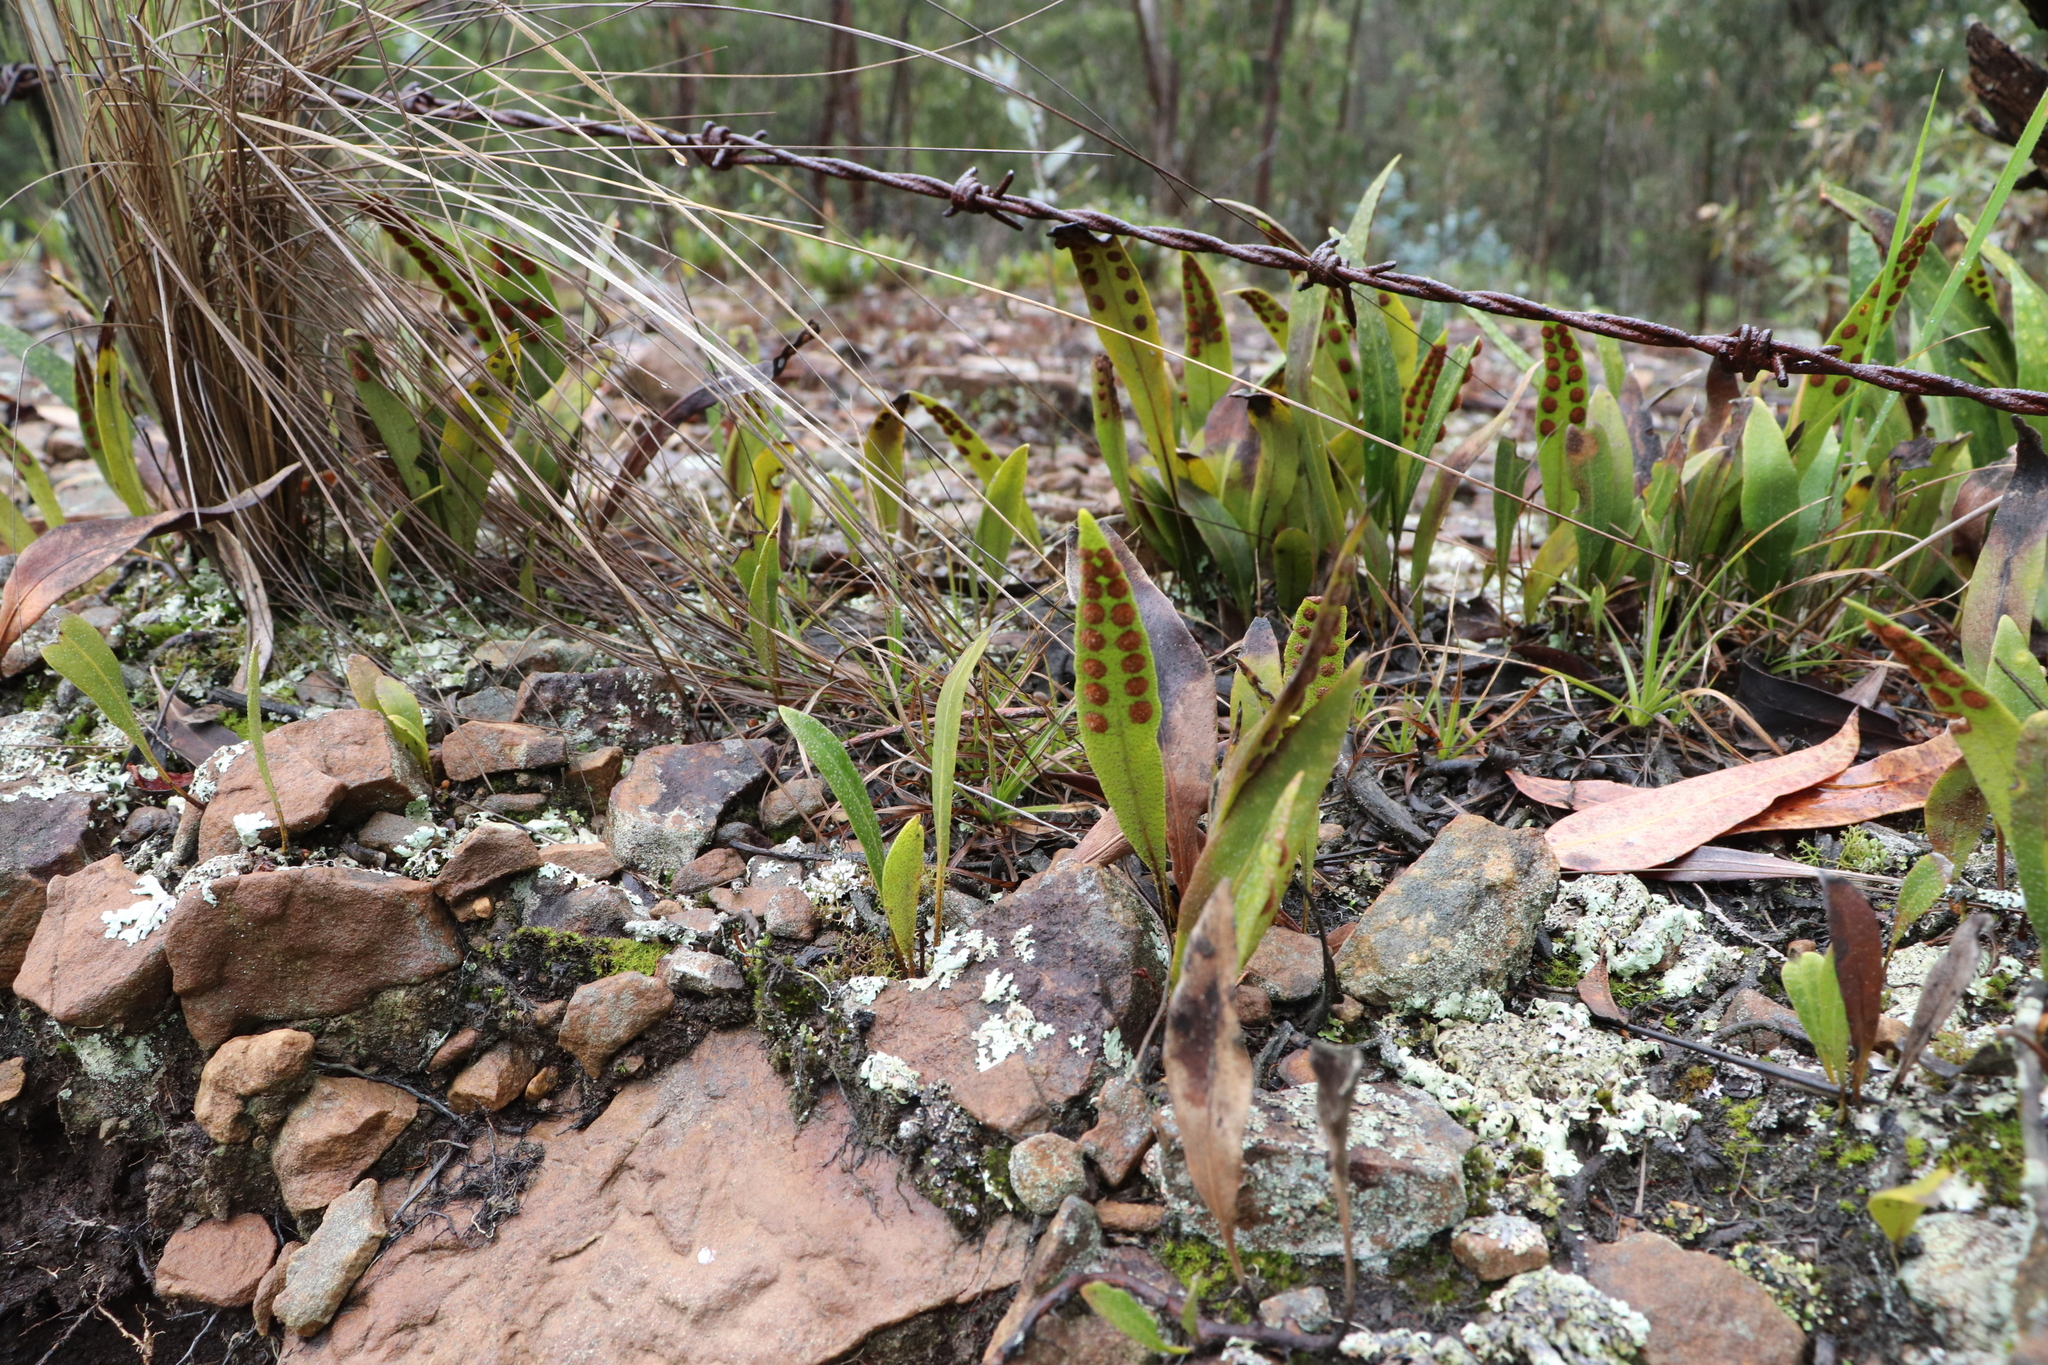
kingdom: Plantae
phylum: Tracheophyta
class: Polypodiopsida
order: Polypodiales
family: Polypodiaceae
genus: Pleopeltis
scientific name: Pleopeltis macrocarpa
